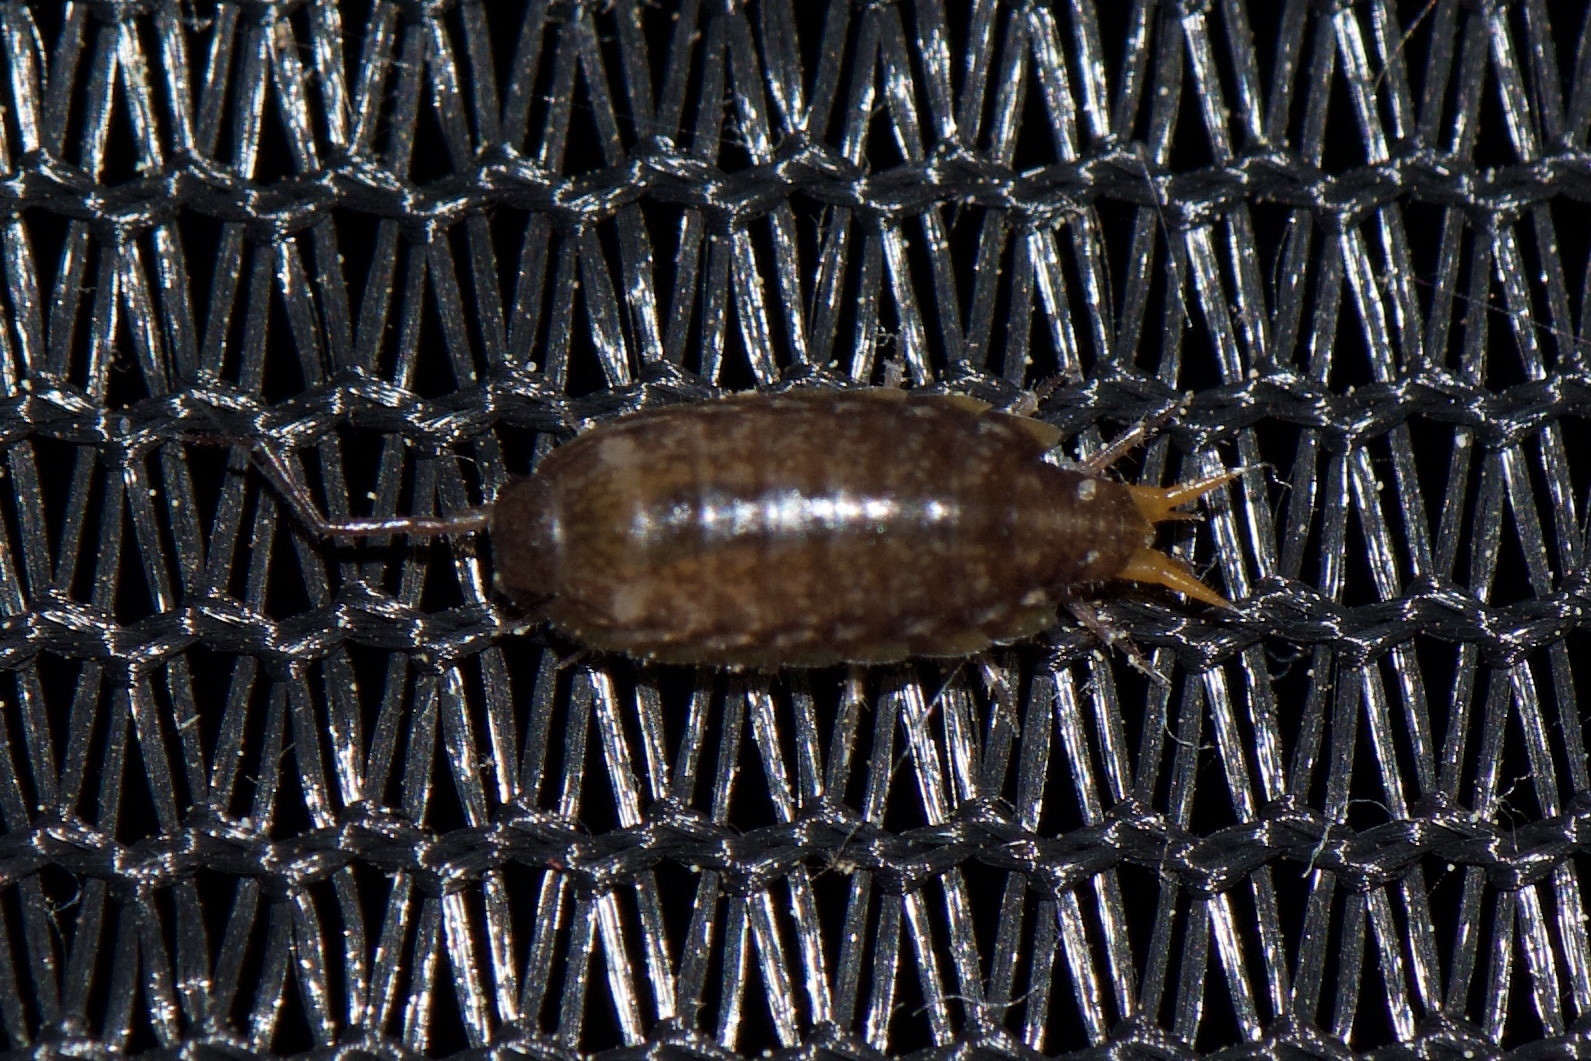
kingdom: Animalia
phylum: Arthropoda
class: Malacostraca
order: Isopoda
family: Philosciidae
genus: Atlantoscia
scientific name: Atlantoscia floridana
